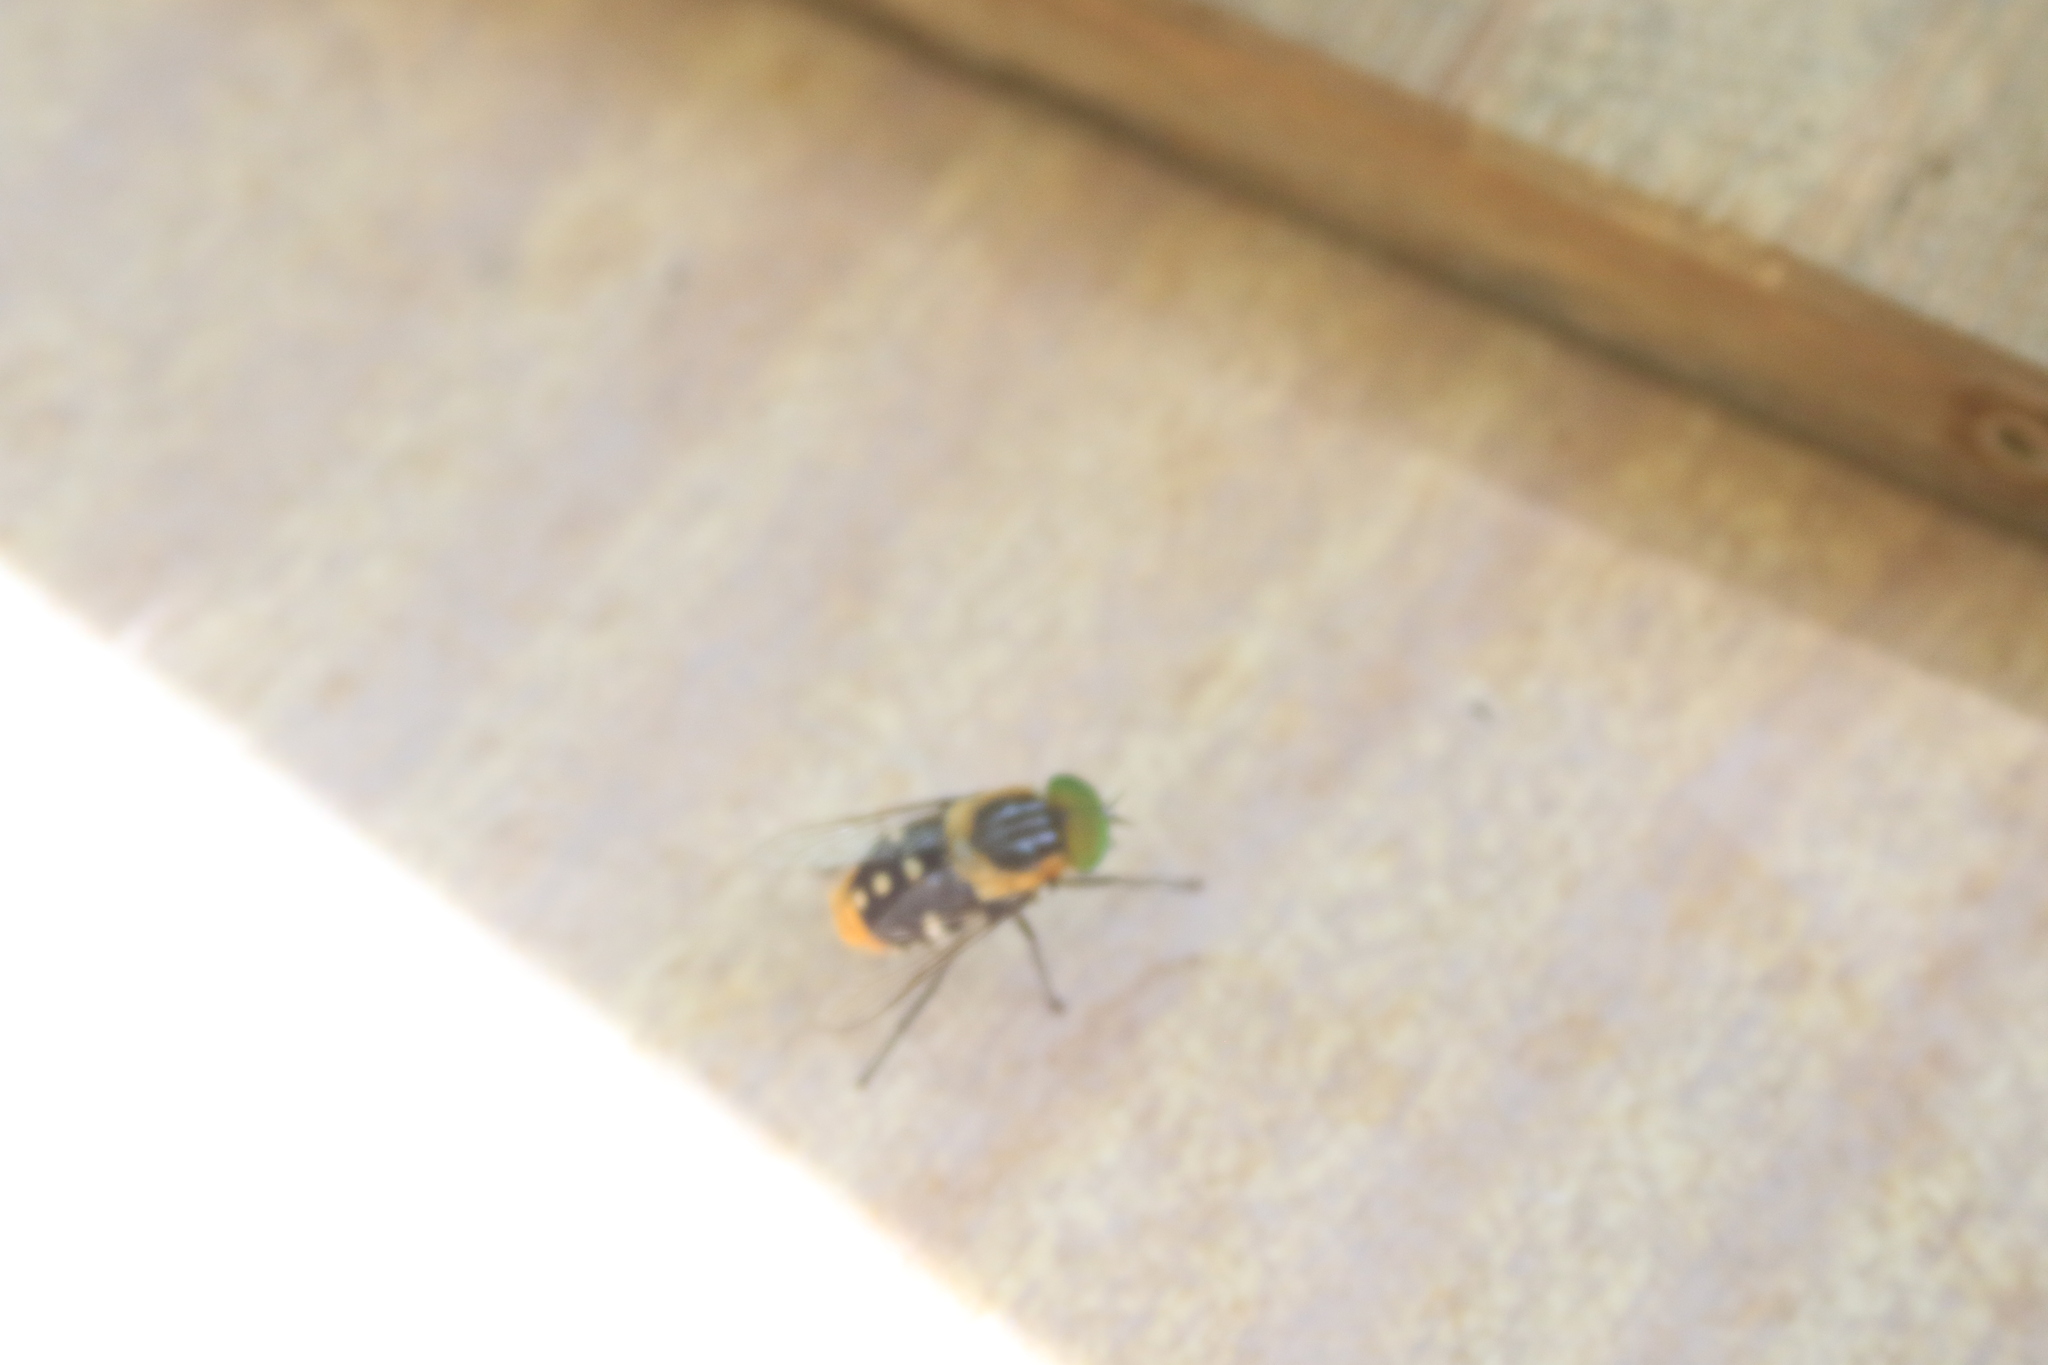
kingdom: Animalia
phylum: Arthropoda
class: Insecta
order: Diptera
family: Tabanidae
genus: Scaptia
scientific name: Scaptia auriflua
